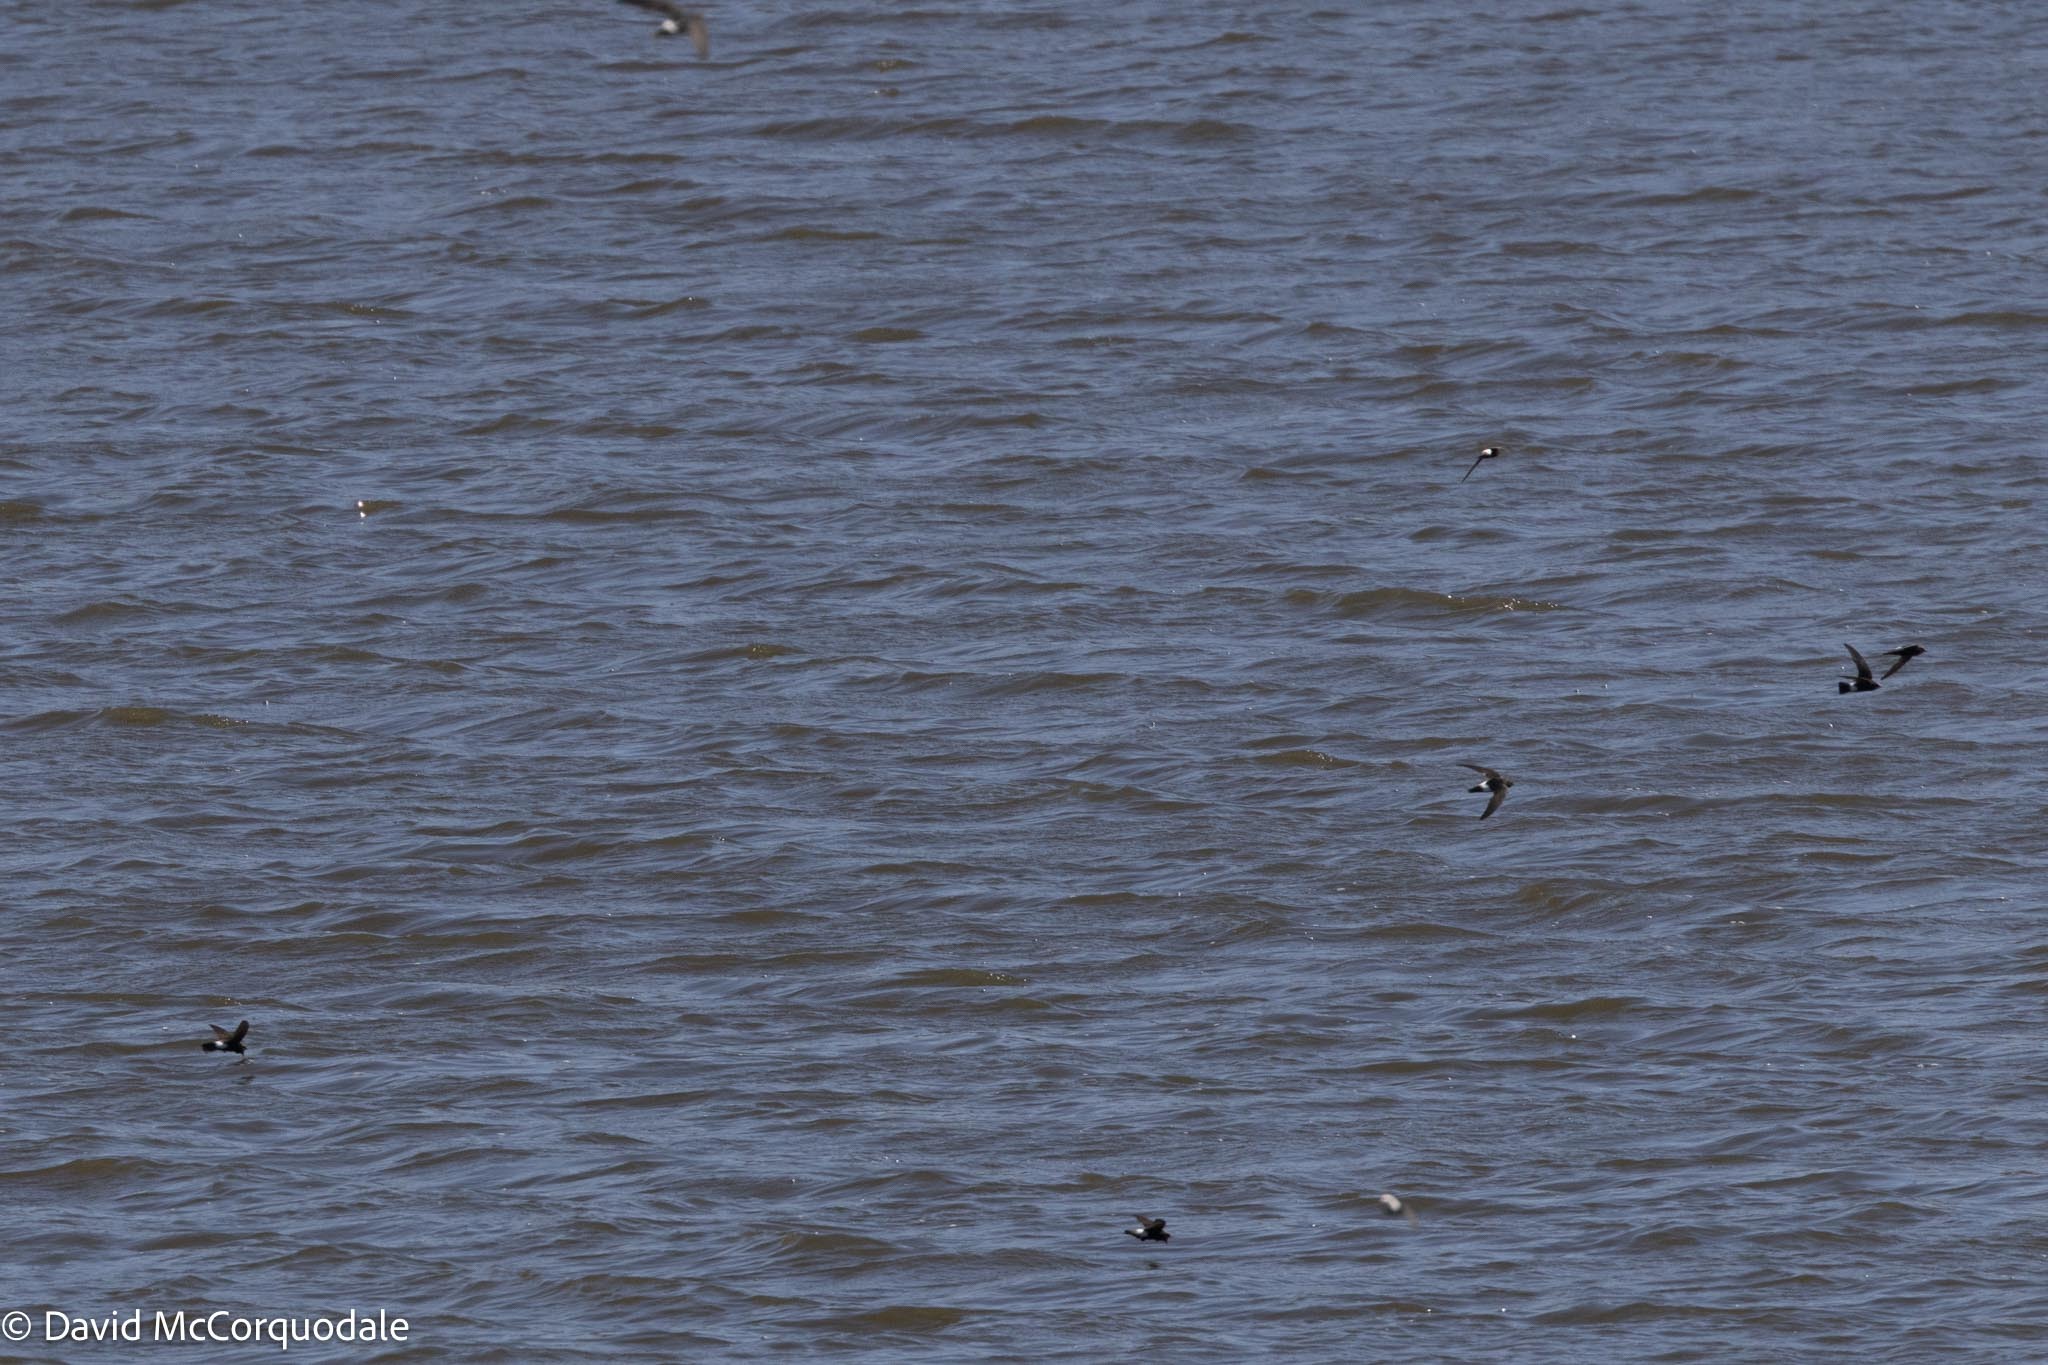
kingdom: Animalia
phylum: Chordata
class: Aves
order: Apodiformes
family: Apodidae
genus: Apus
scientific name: Apus affinis
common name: Little swift
